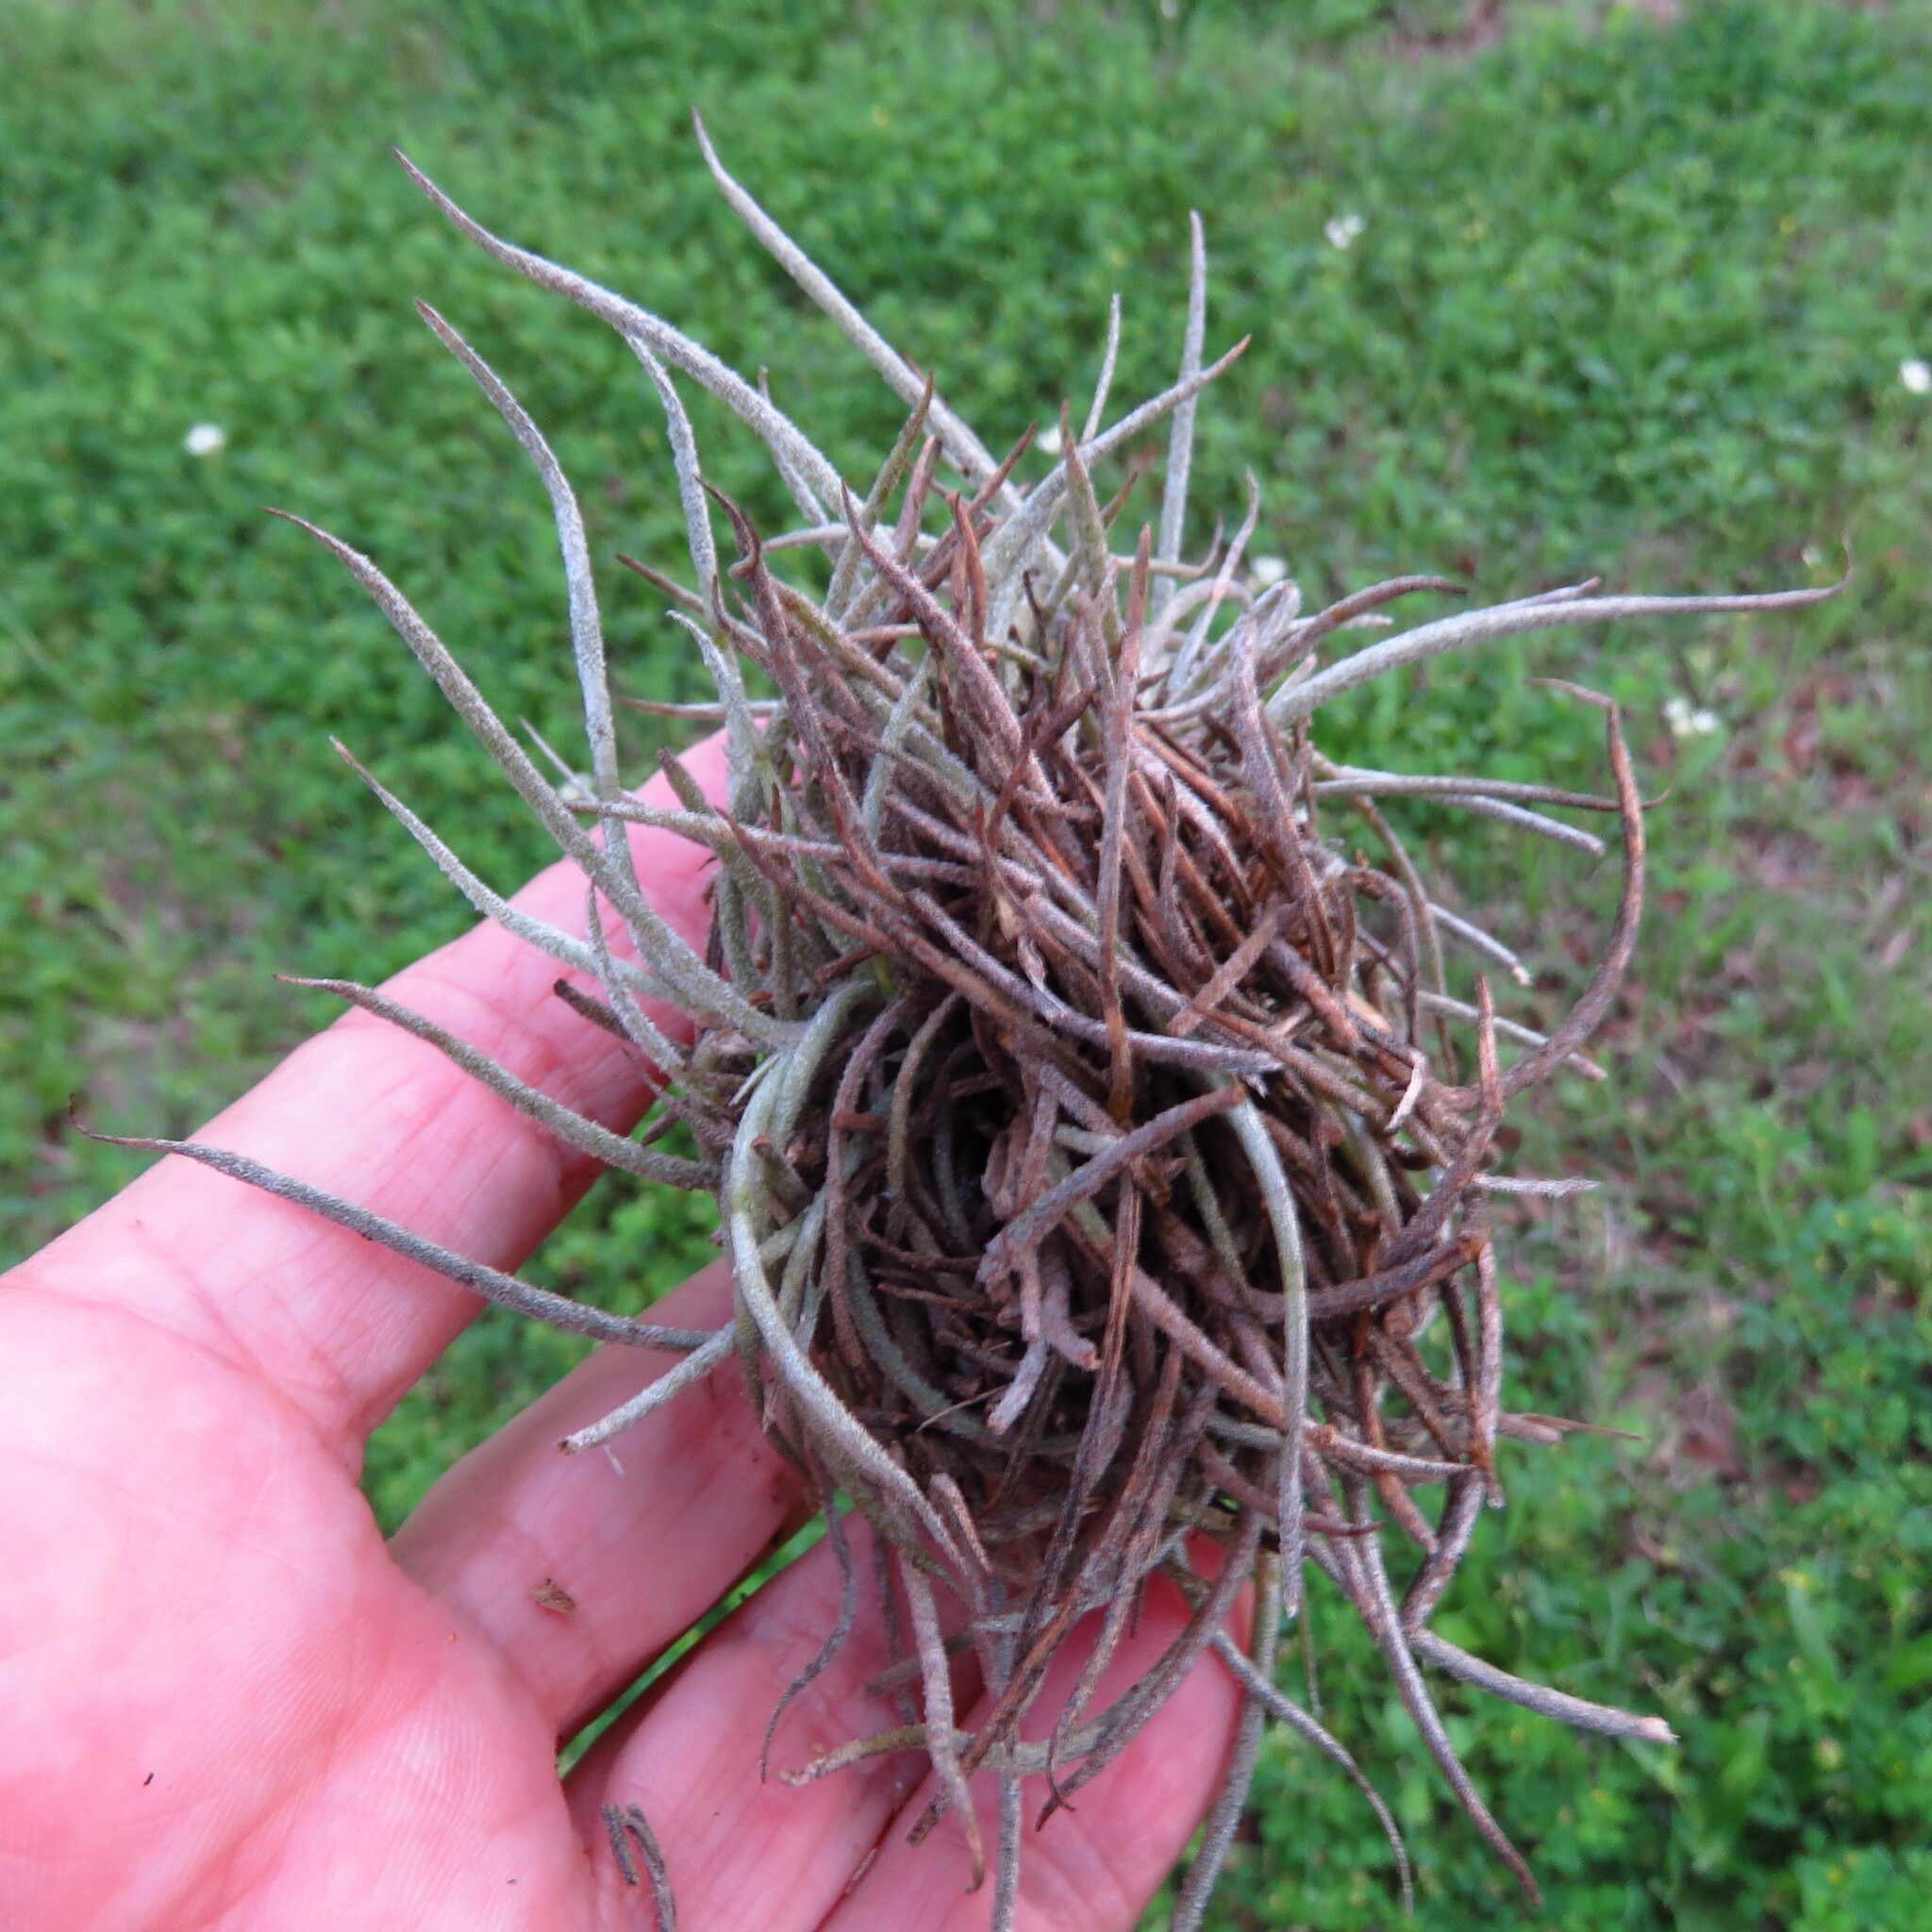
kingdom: Plantae
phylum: Tracheophyta
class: Liliopsida
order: Poales
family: Bromeliaceae
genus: Tillandsia
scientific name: Tillandsia recurvata
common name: Small ballmoss
